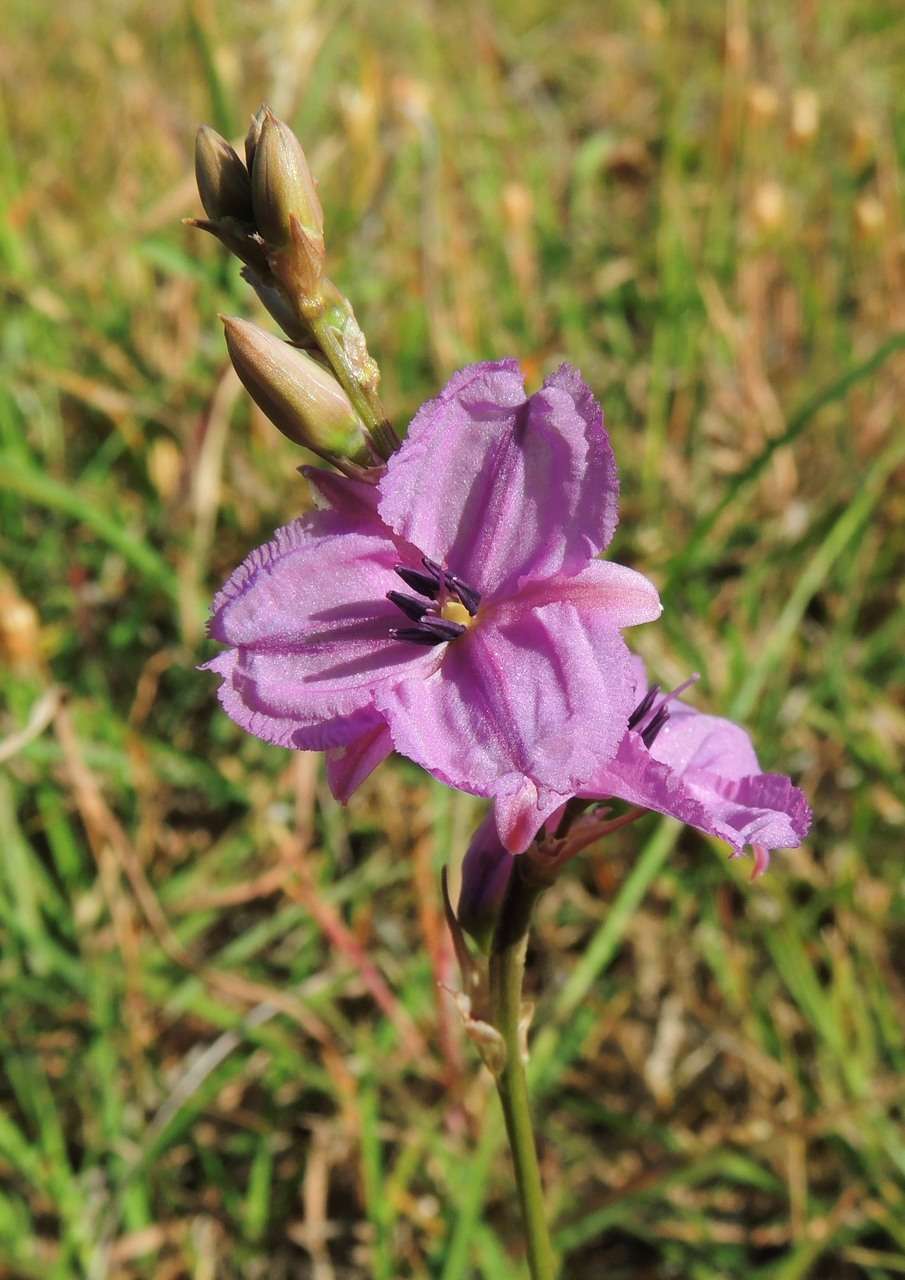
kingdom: Plantae
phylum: Tracheophyta
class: Liliopsida
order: Asparagales
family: Asparagaceae
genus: Arthropodium
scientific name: Arthropodium strictum
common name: Chocolate-lily
